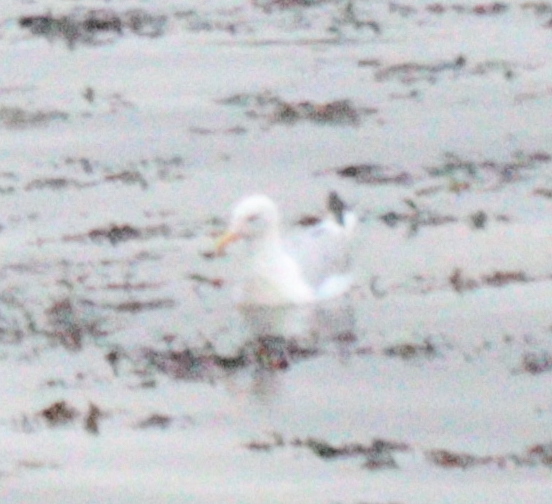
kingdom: Animalia
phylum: Chordata
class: Aves
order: Charadriiformes
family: Laridae
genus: Larus
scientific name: Larus argentatus
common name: Herring gull
